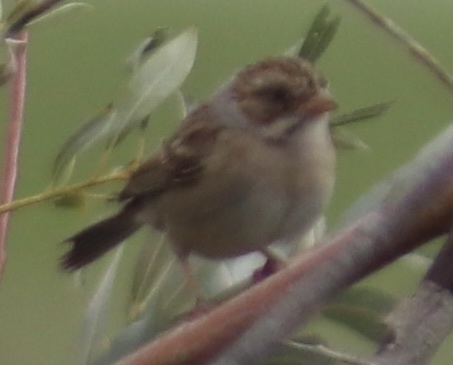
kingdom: Animalia
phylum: Chordata
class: Aves
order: Passeriformes
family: Passerellidae
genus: Spizella
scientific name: Spizella pallida
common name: Clay-colored sparrow
